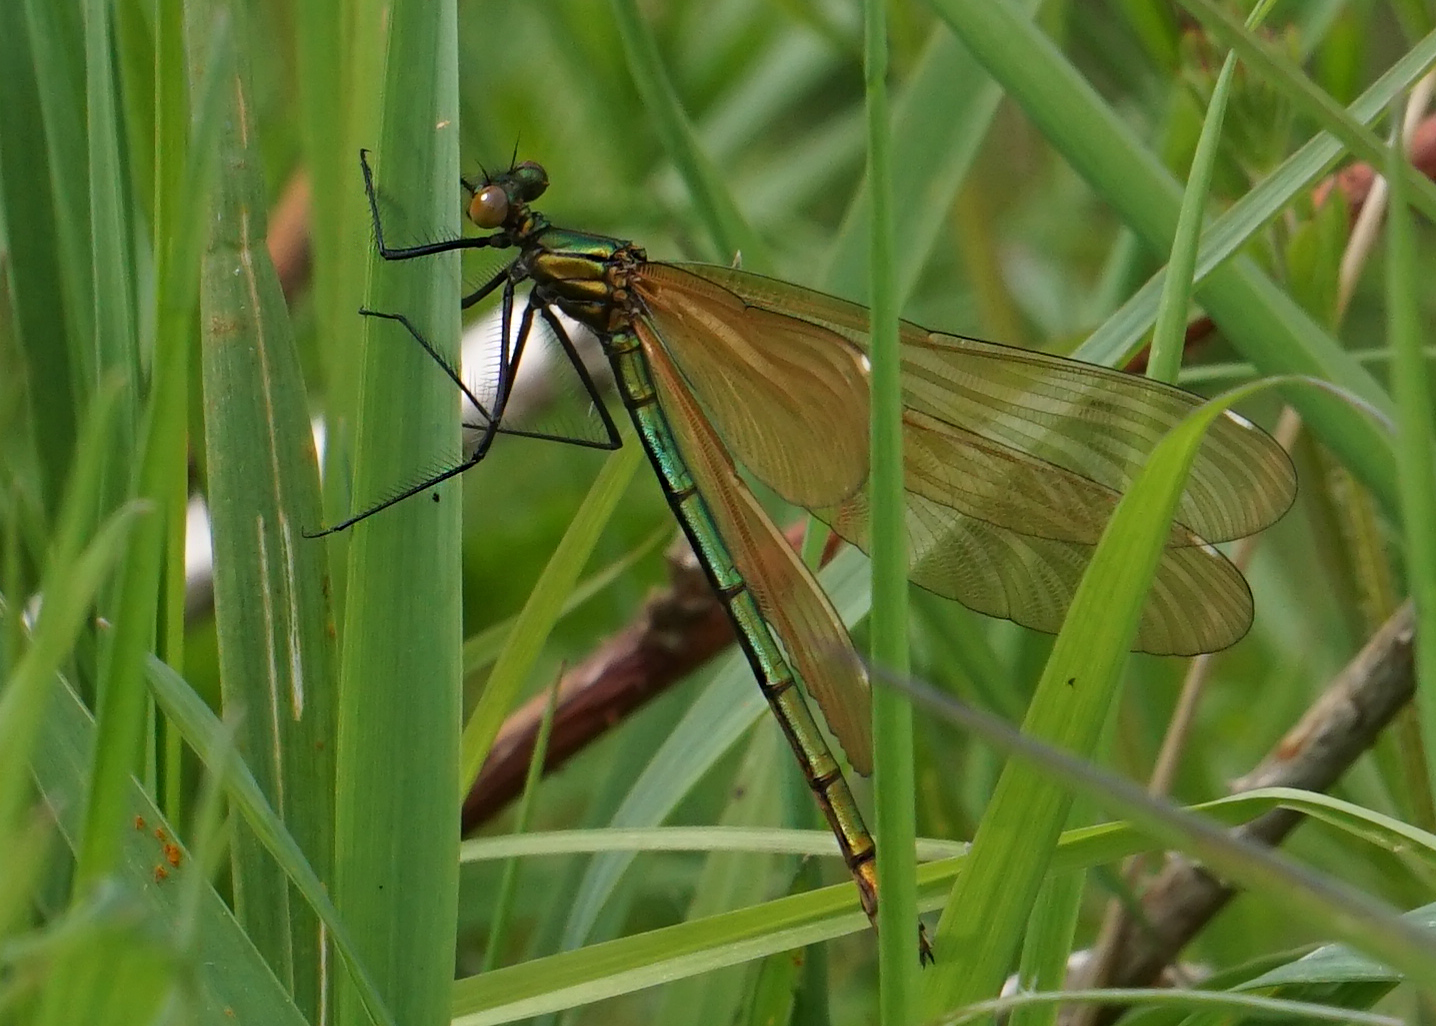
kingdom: Animalia
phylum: Arthropoda
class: Insecta
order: Odonata
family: Calopterygidae
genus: Calopteryx
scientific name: Calopteryx virgo
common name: Beautiful demoiselle
